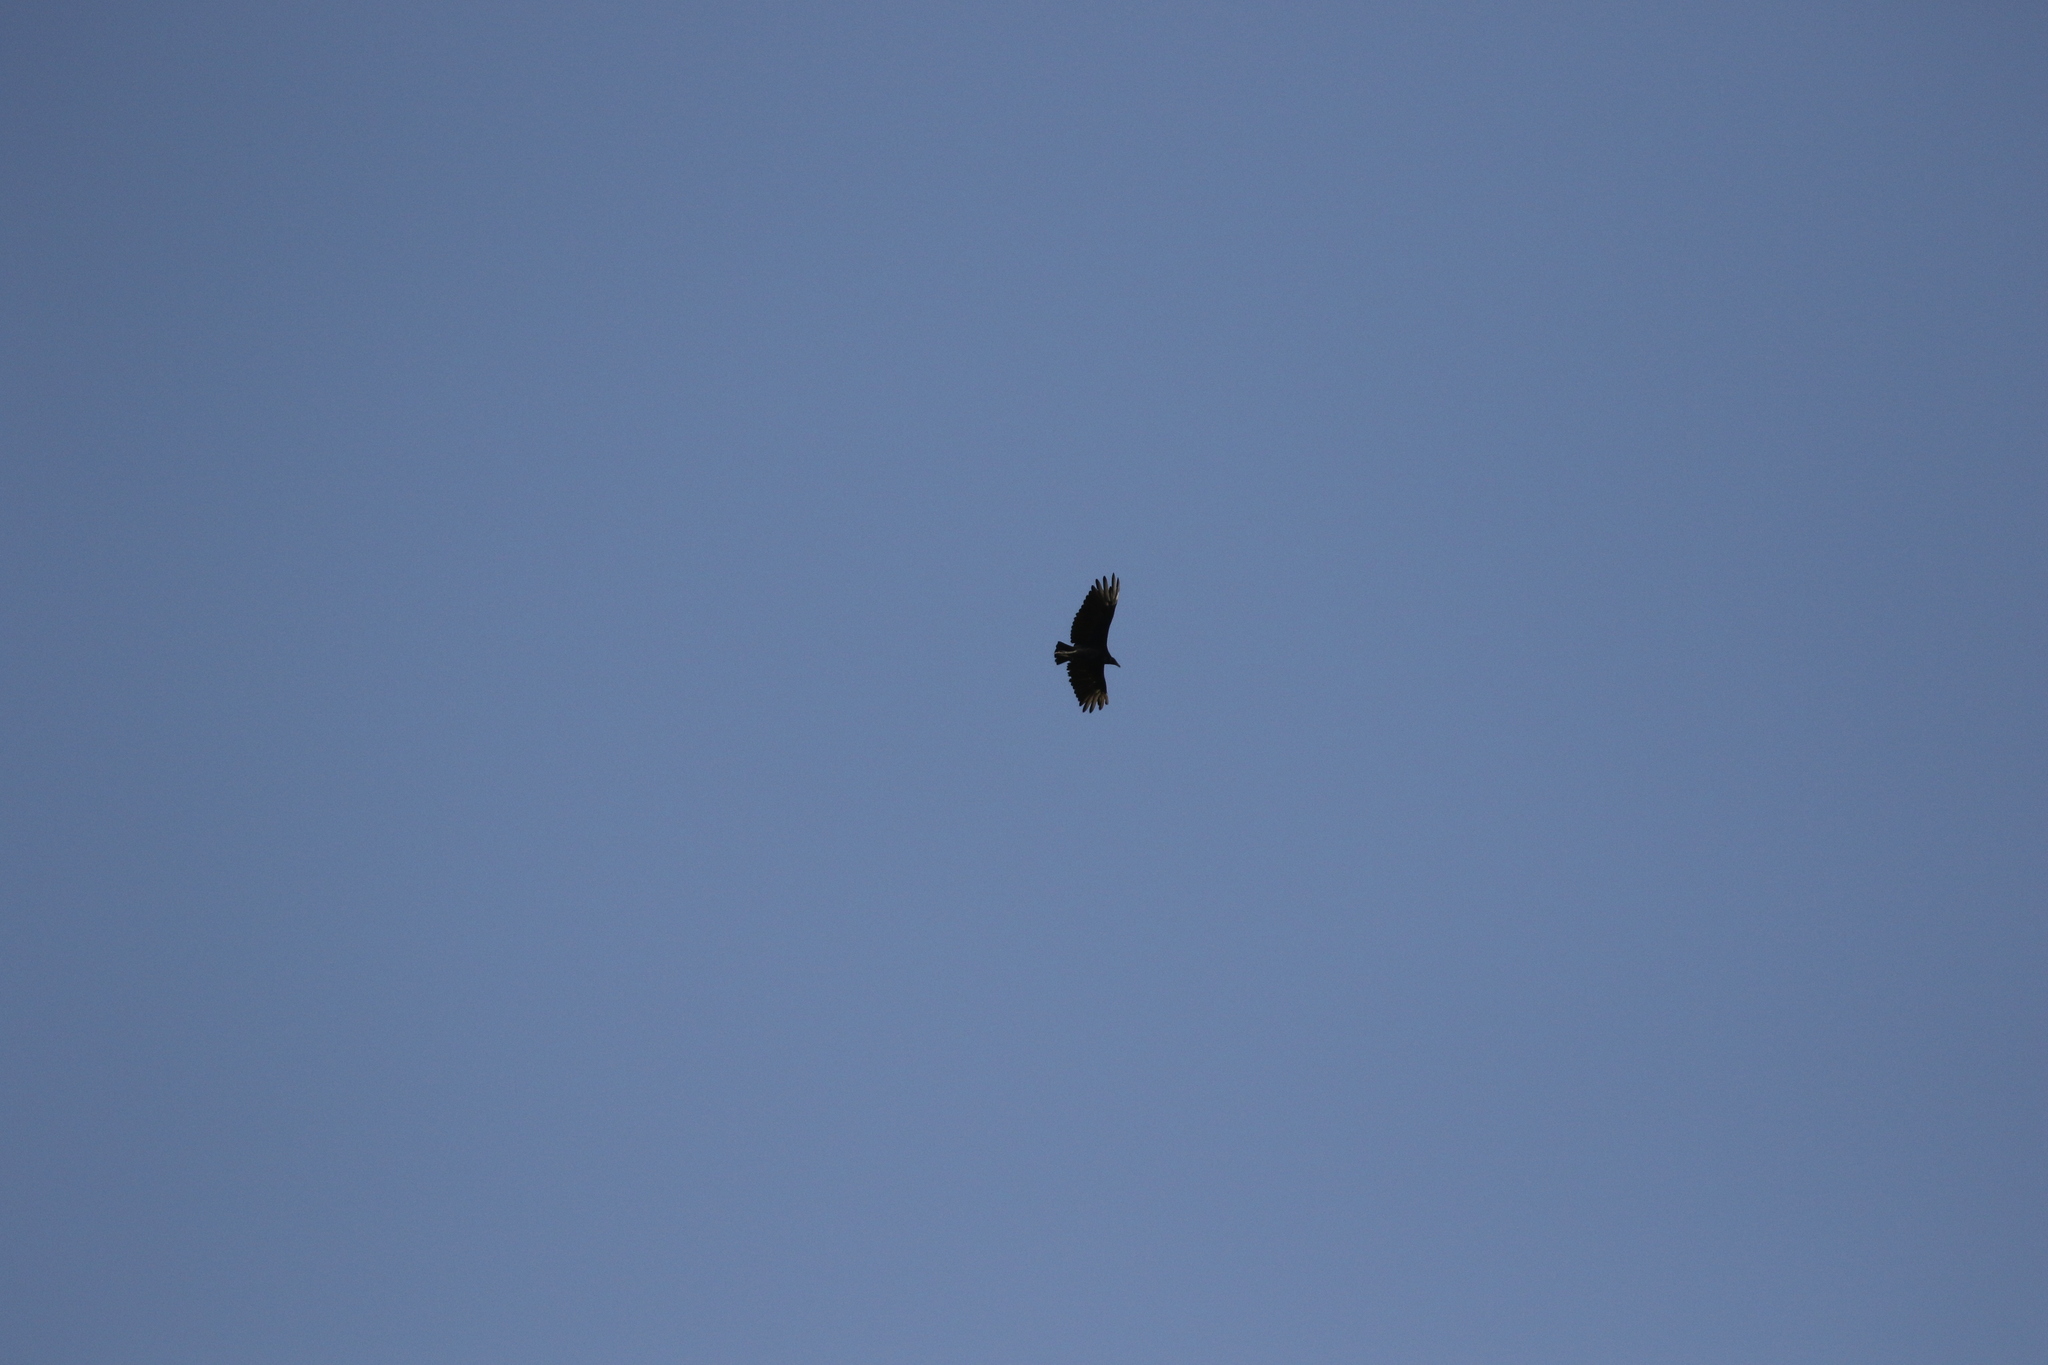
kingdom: Animalia
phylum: Chordata
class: Aves
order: Accipitriformes
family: Cathartidae
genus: Coragyps
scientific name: Coragyps atratus
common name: Black vulture
